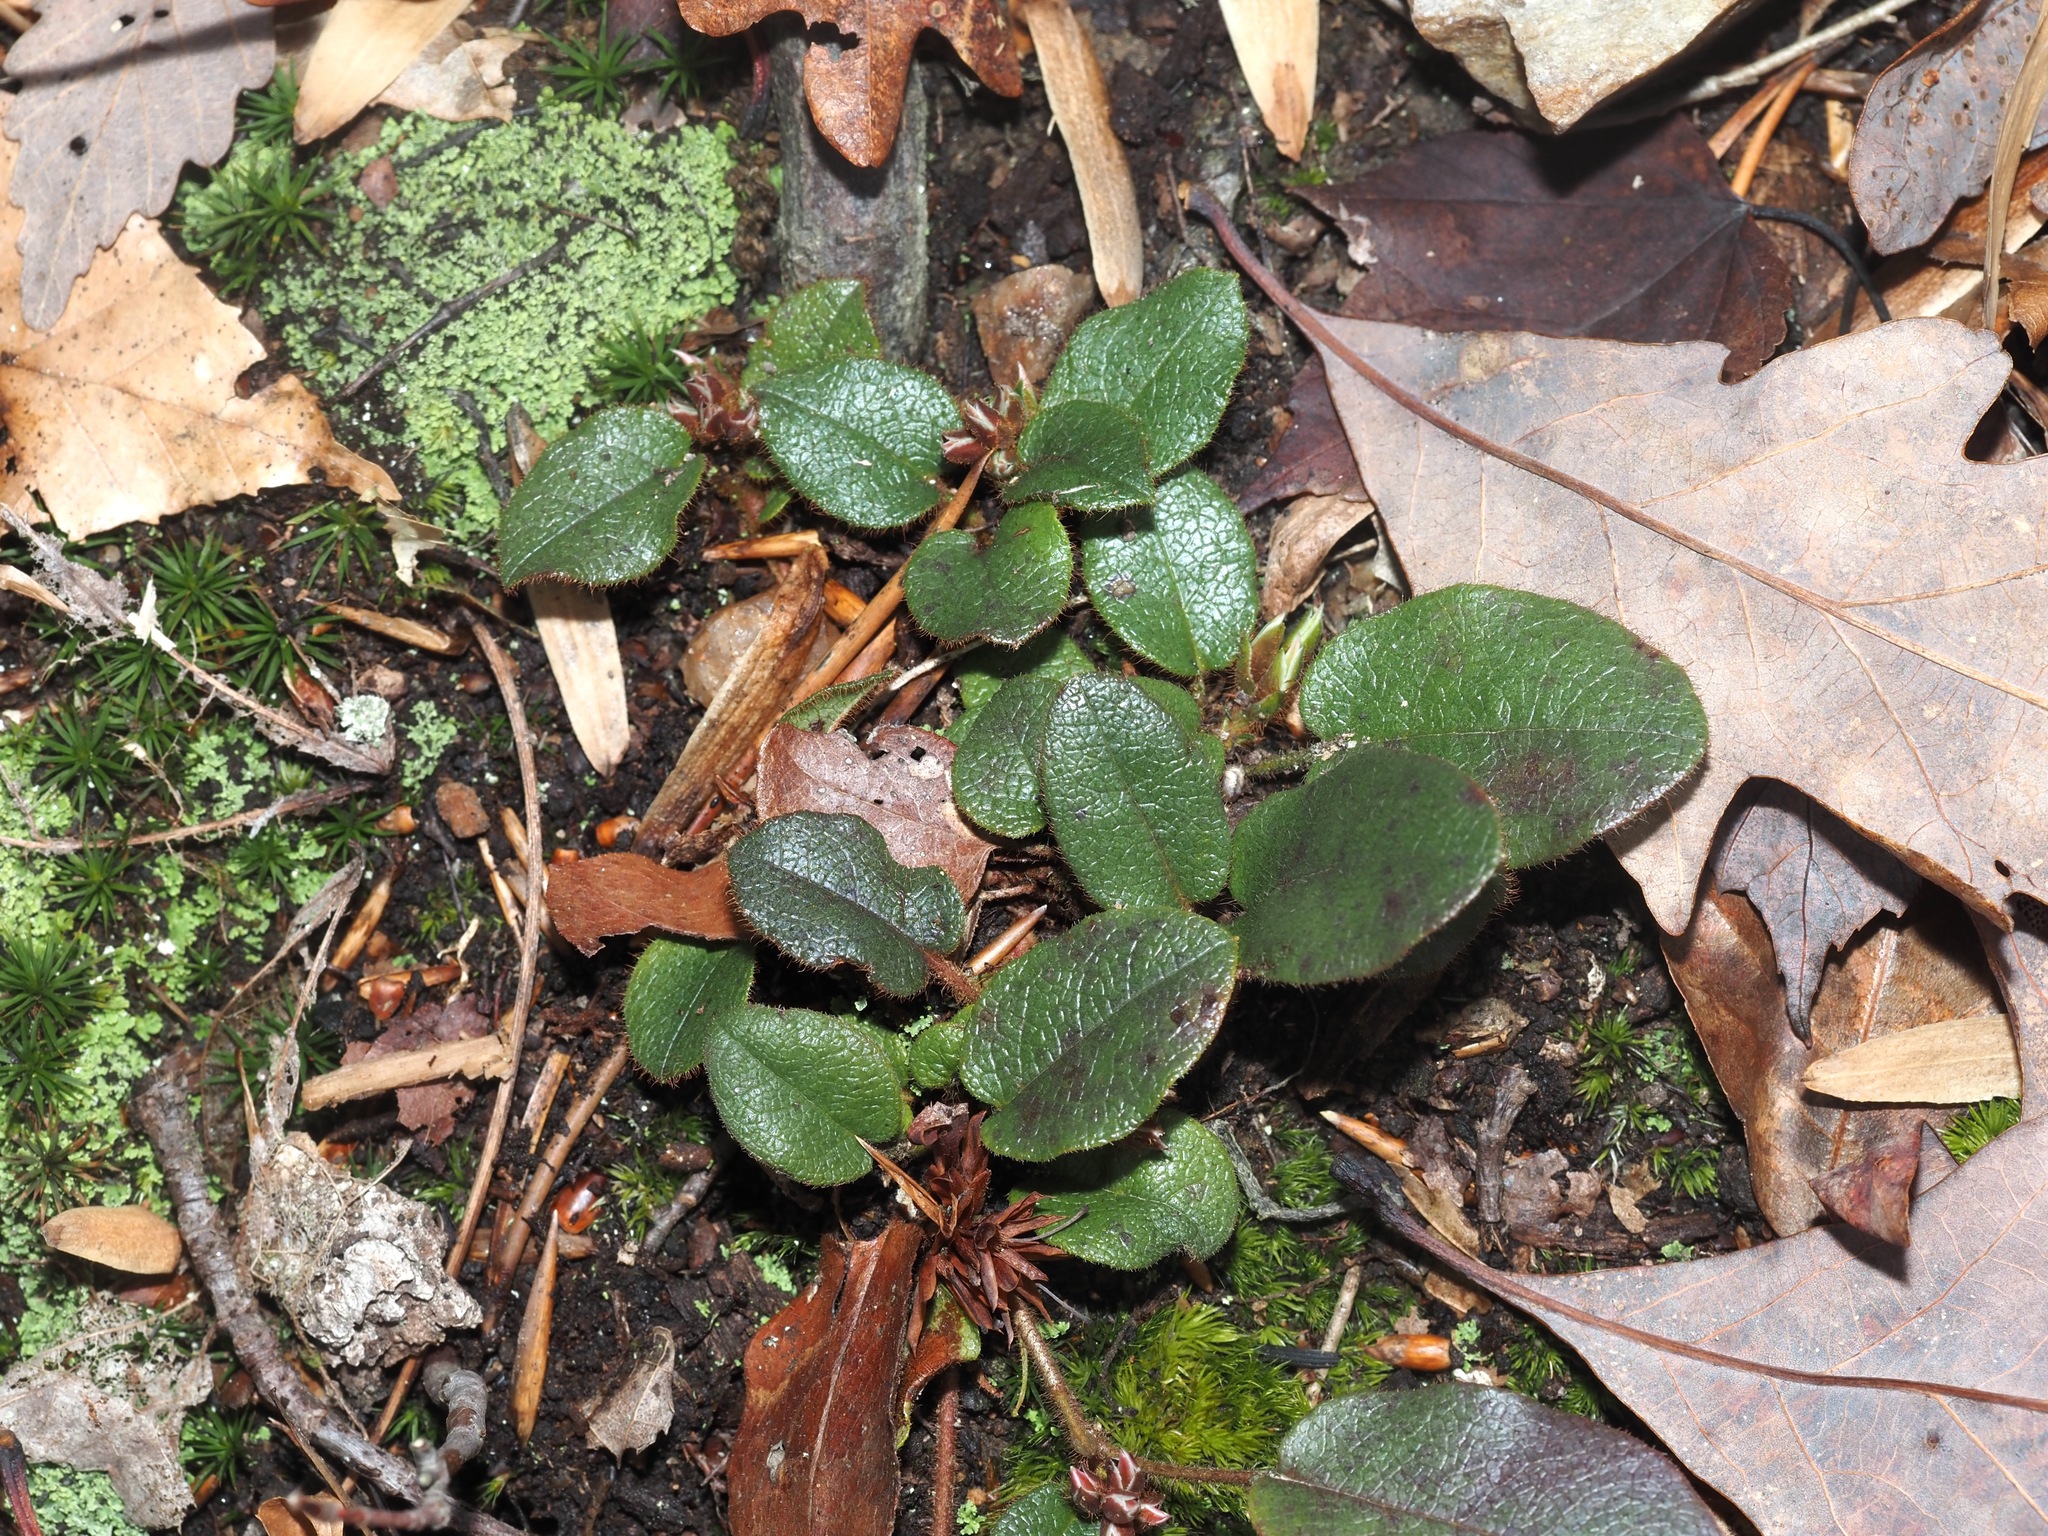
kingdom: Plantae
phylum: Tracheophyta
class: Magnoliopsida
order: Ericales
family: Ericaceae
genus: Epigaea
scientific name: Epigaea repens
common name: Gravelroot
